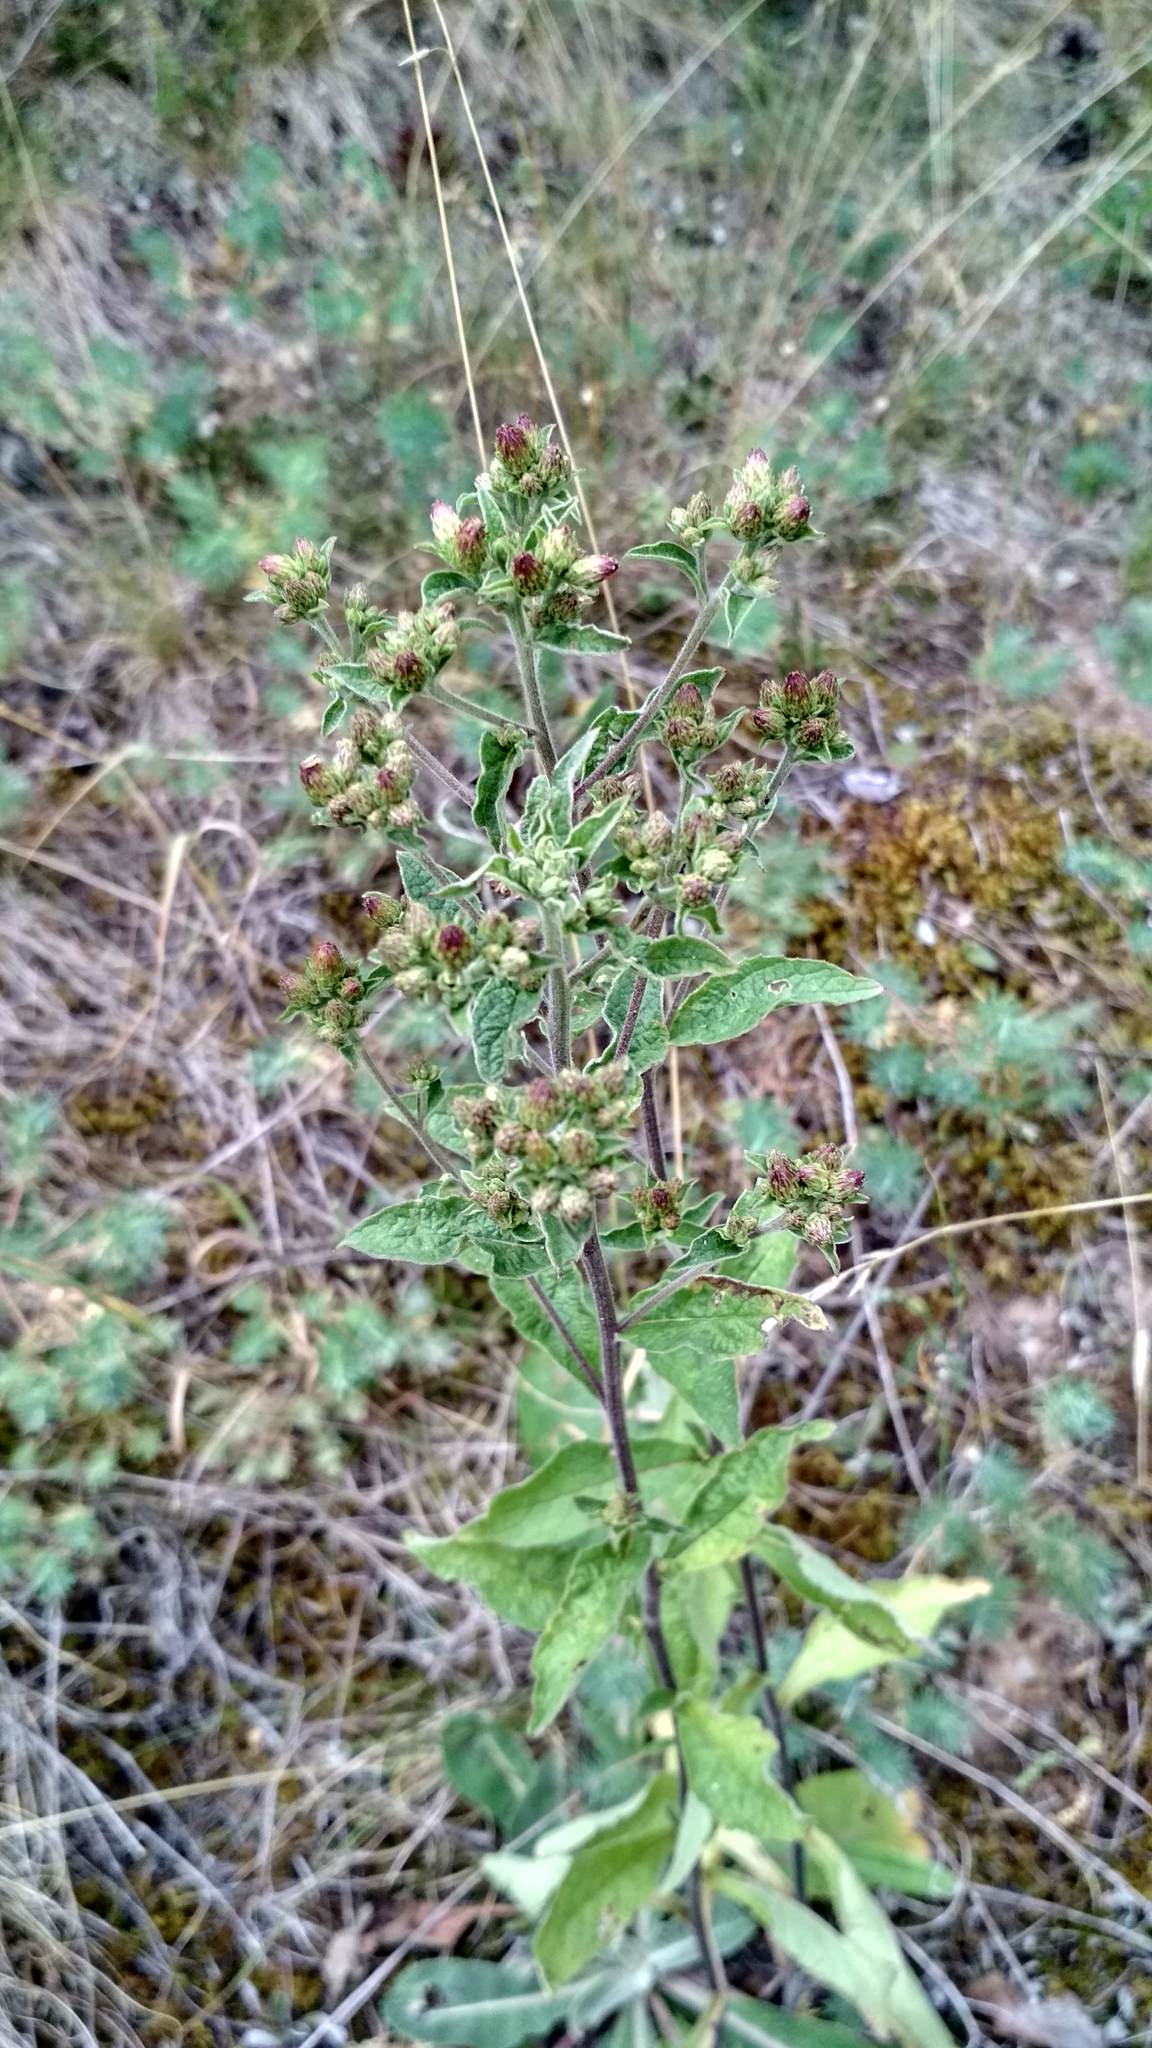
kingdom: Plantae
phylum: Tracheophyta
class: Magnoliopsida
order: Asterales
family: Asteraceae
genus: Pentanema
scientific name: Pentanema squarrosum
